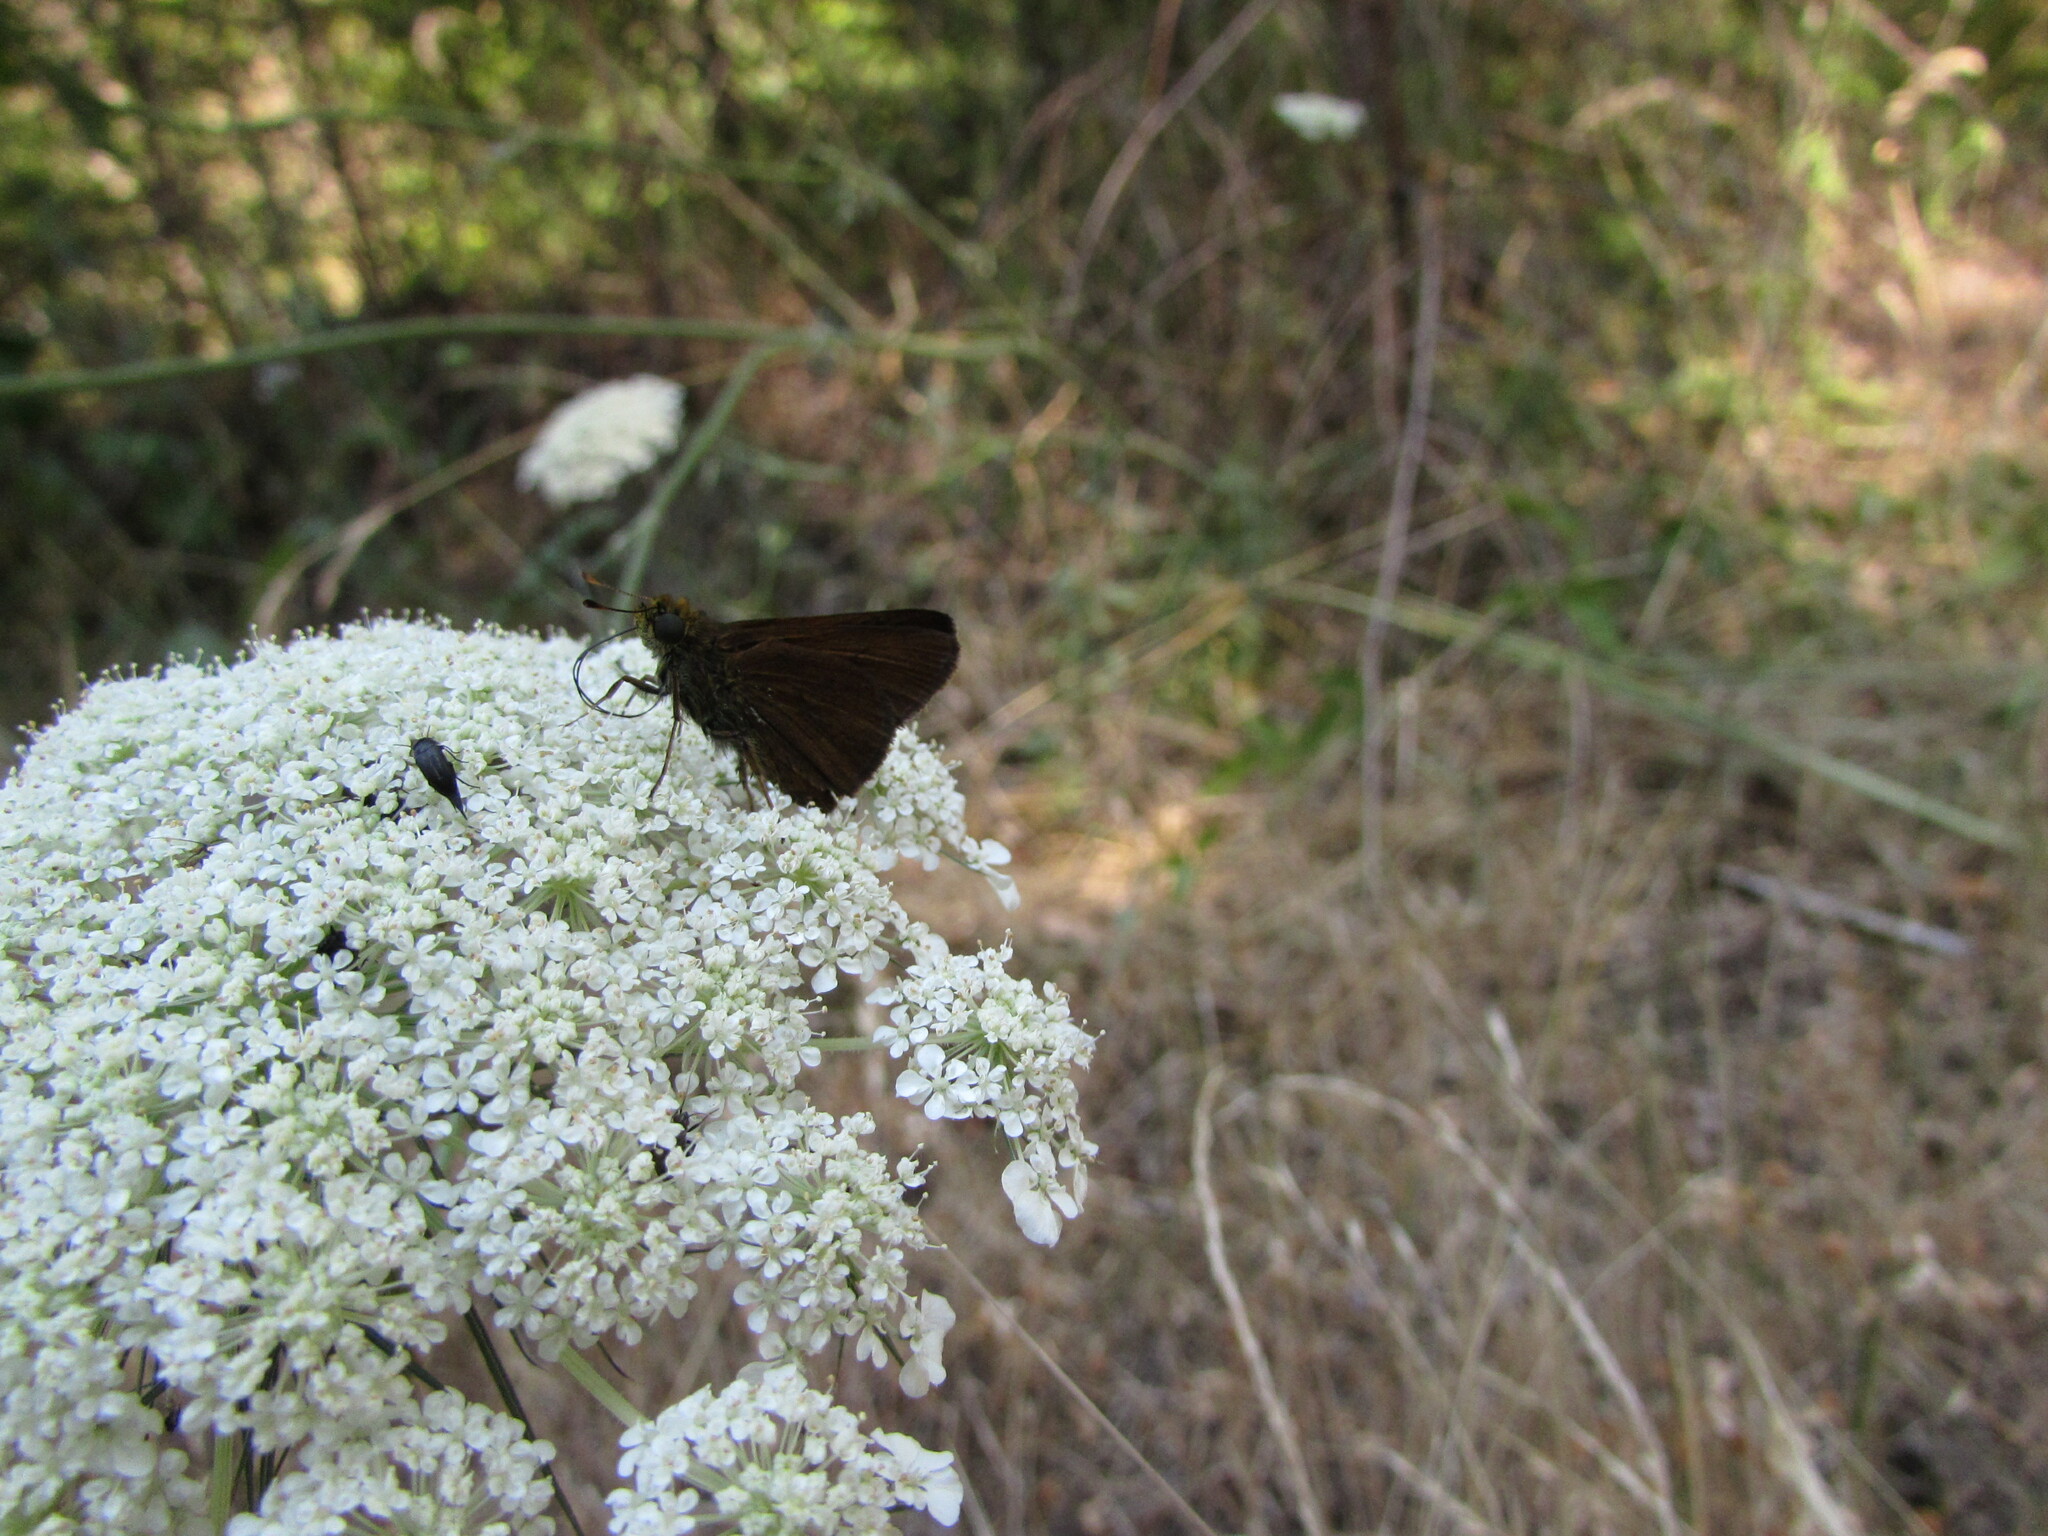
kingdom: Animalia
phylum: Arthropoda
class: Insecta
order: Lepidoptera
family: Hesperiidae
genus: Euphyes
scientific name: Euphyes vestris
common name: Dun skipper
